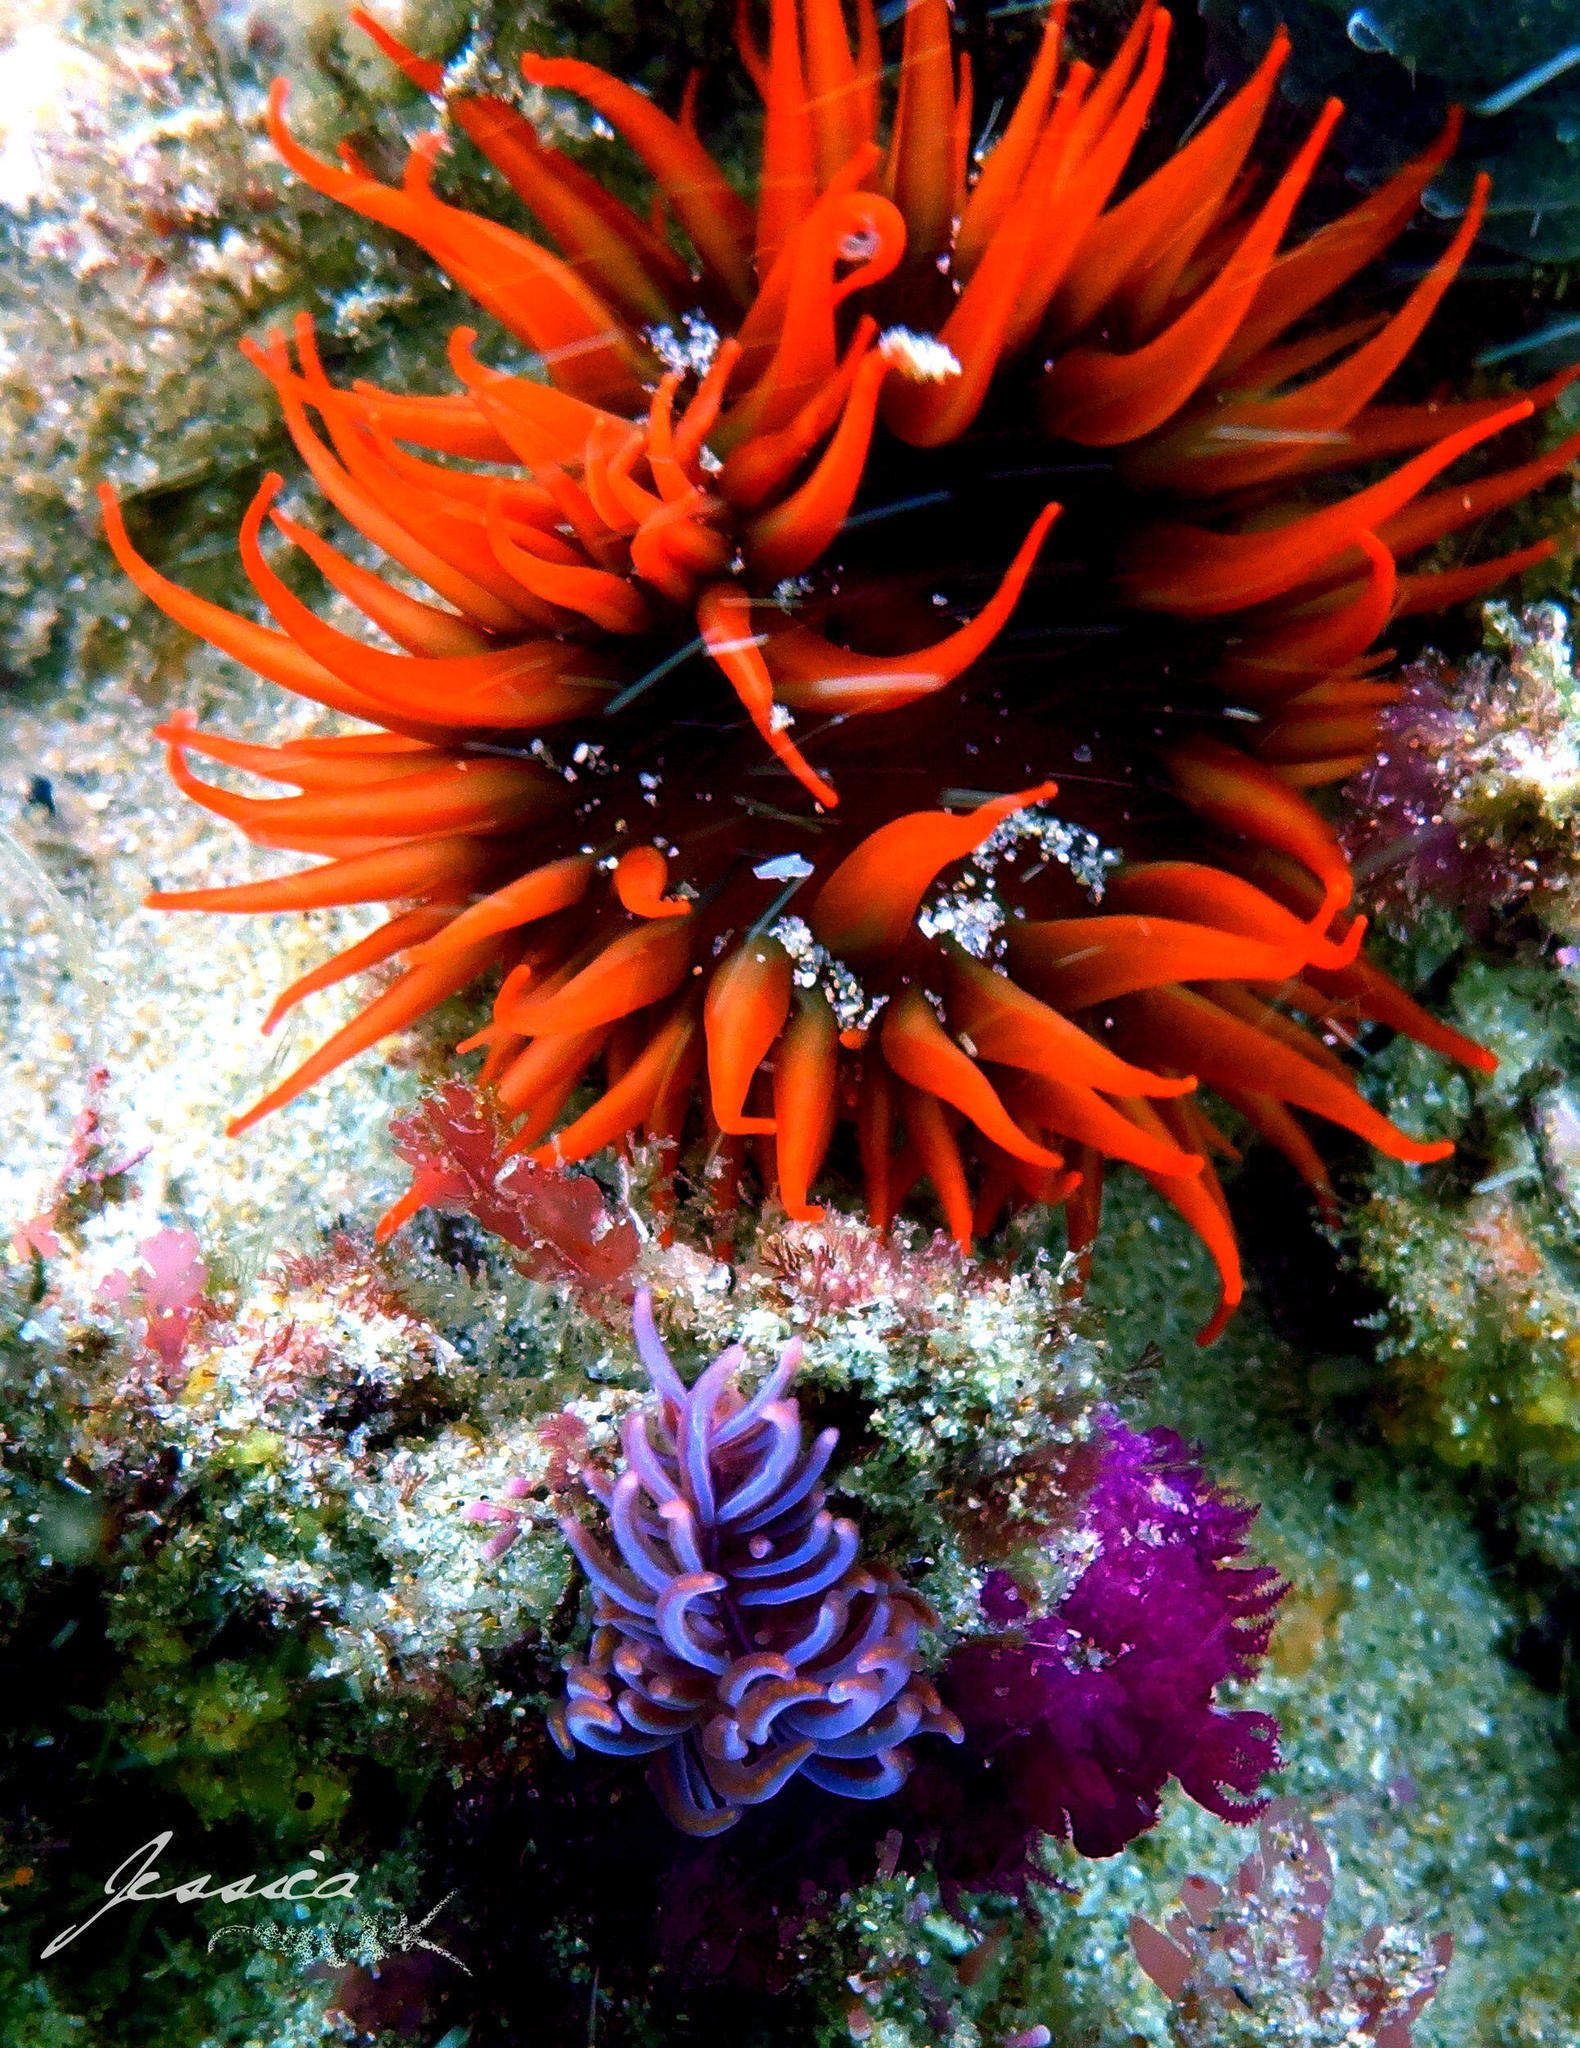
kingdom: Animalia
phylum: Mollusca
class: Gastropoda
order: Nudibranchia
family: Myrrhinidae
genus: Phyllodesmium
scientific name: Phyllodesmium horridum
